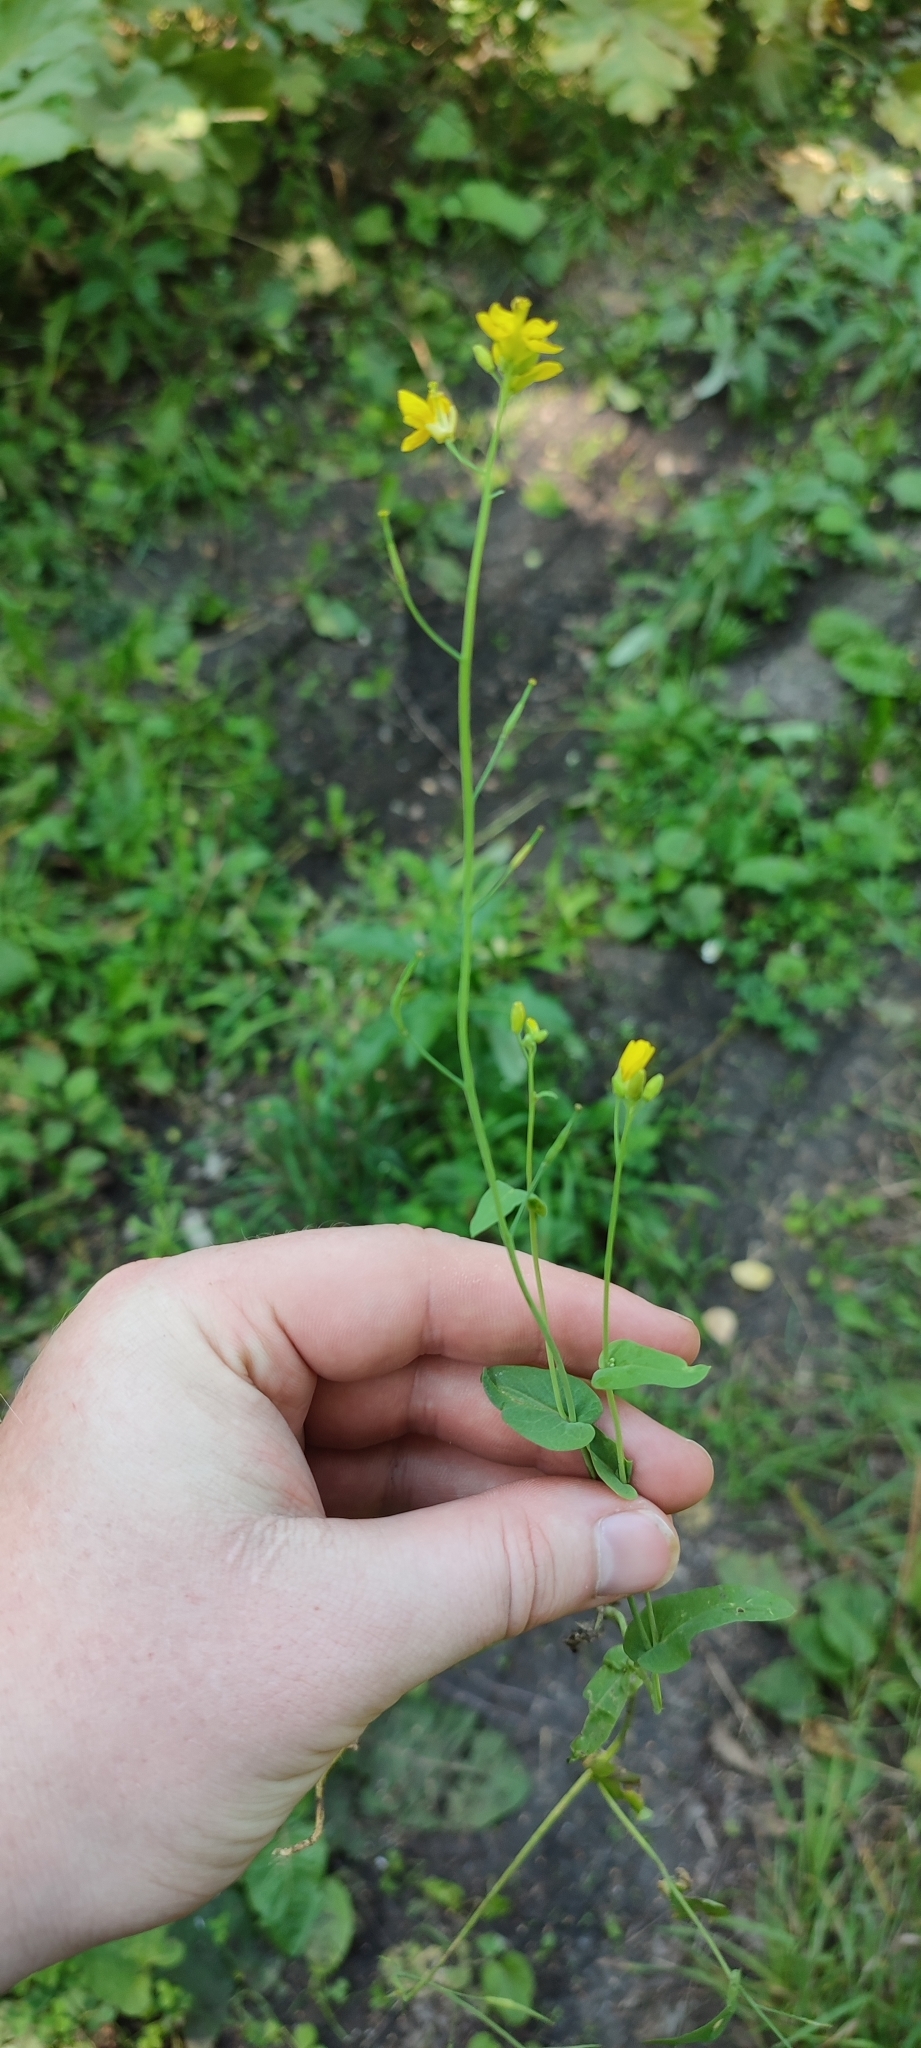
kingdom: Plantae
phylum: Tracheophyta
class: Magnoliopsida
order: Brassicales
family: Brassicaceae
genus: Brassica
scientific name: Brassica rapa
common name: Field mustard
